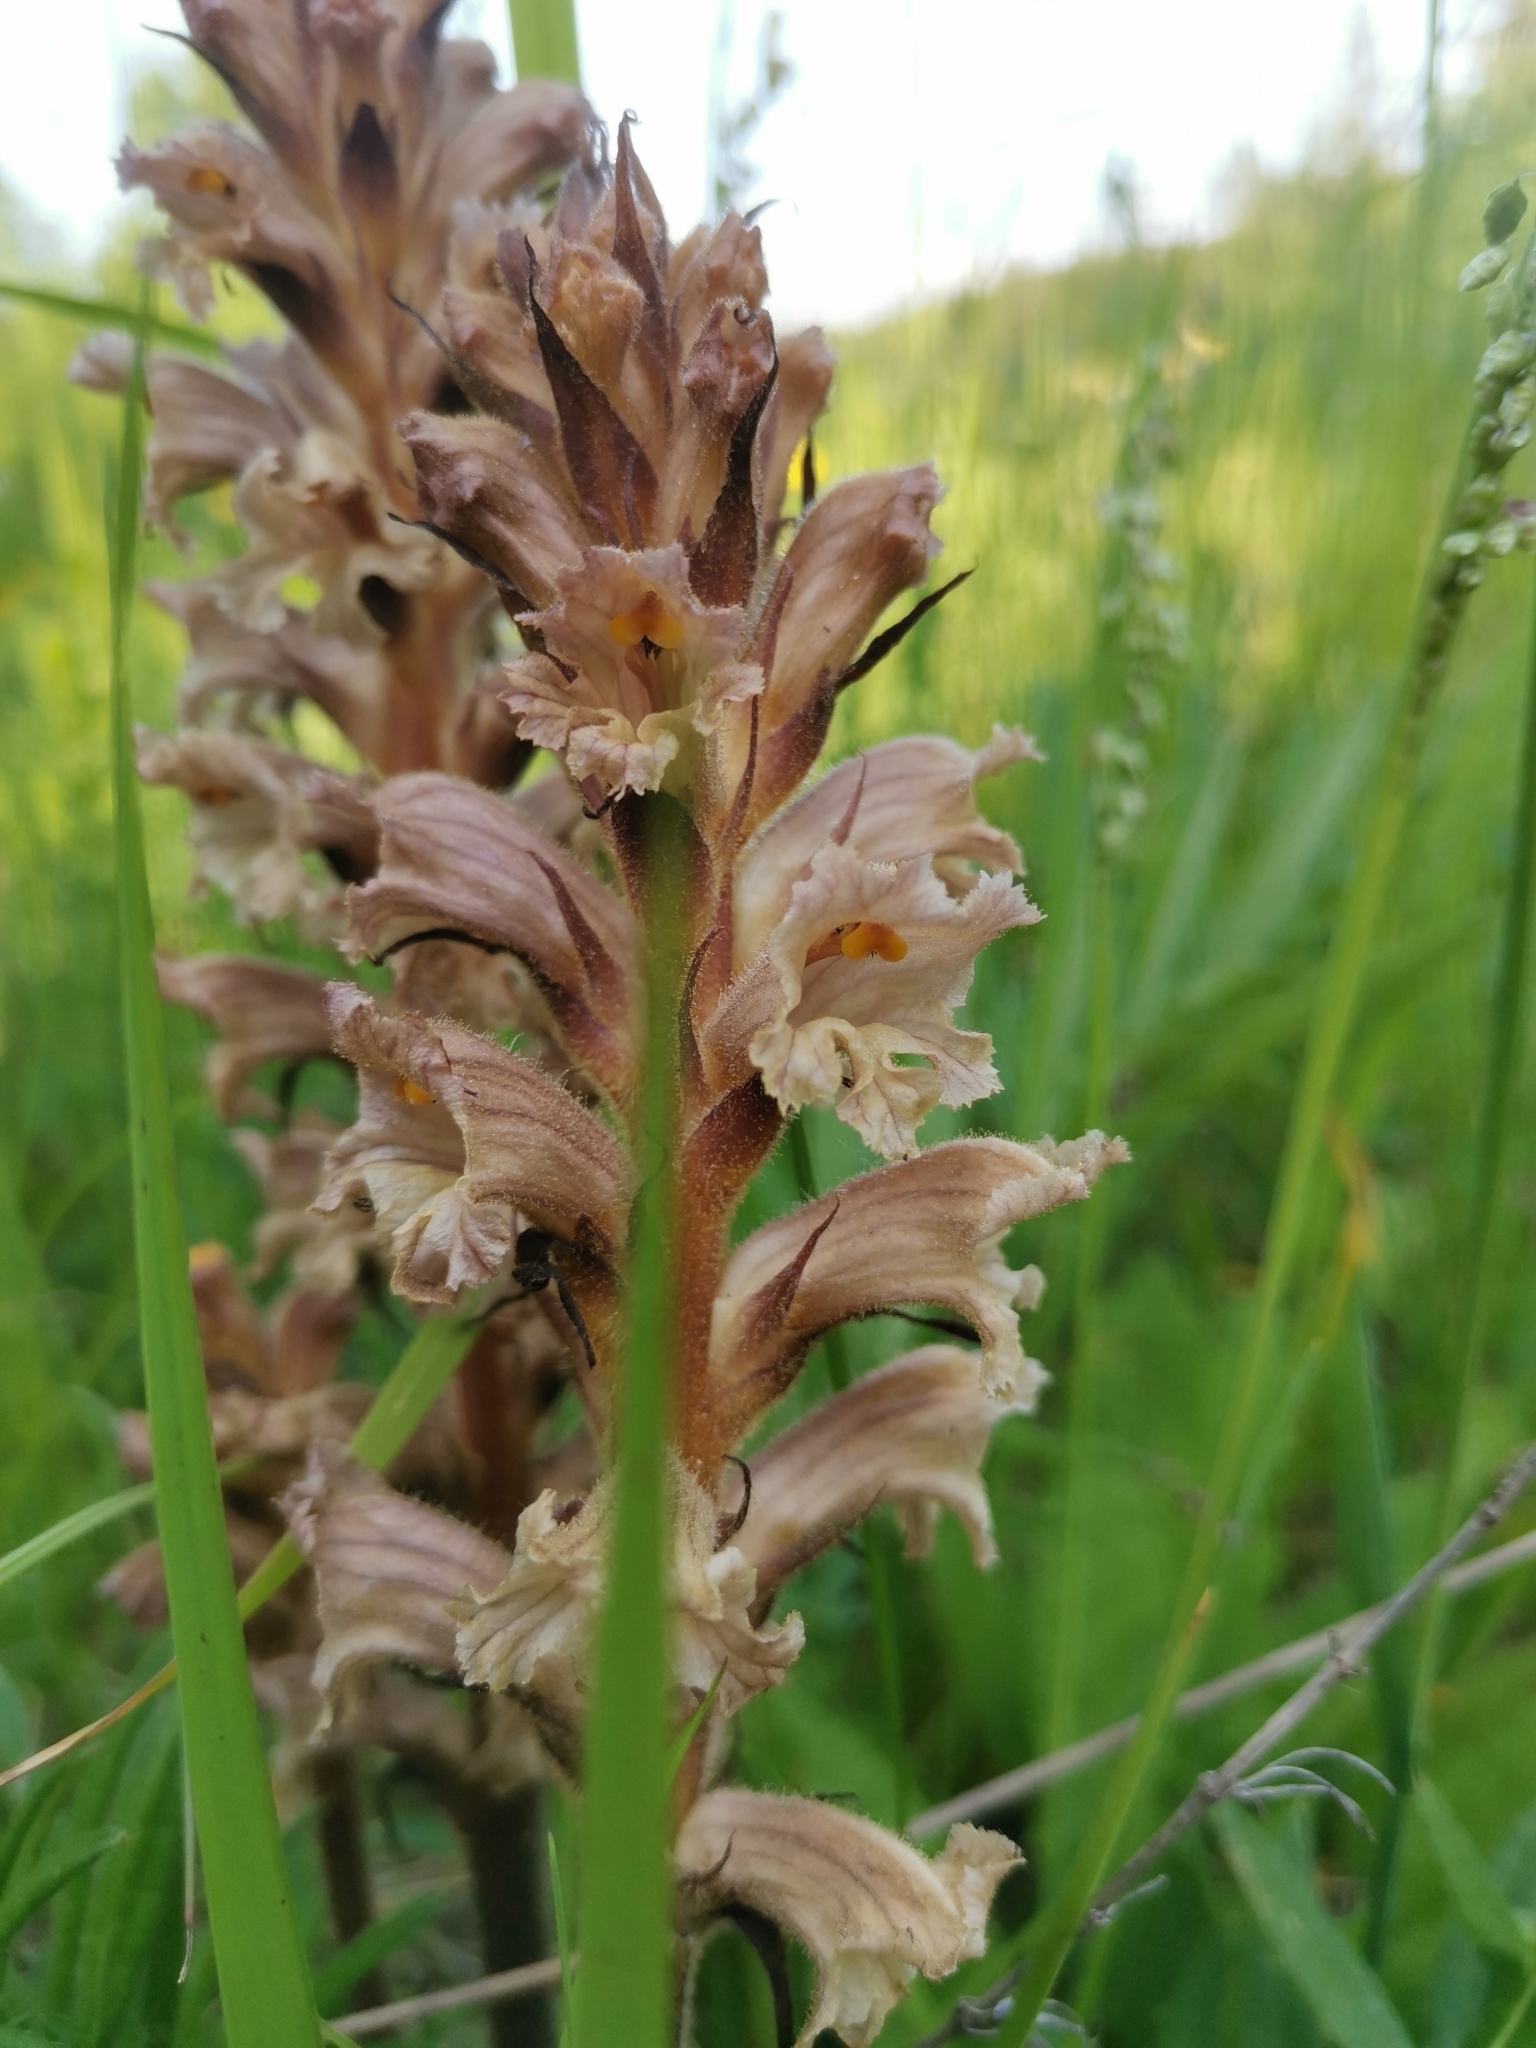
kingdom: Plantae
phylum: Tracheophyta
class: Magnoliopsida
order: Lamiales
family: Orobanchaceae
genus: Orobanche
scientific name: Orobanche lutea
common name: Yellow broomrape
